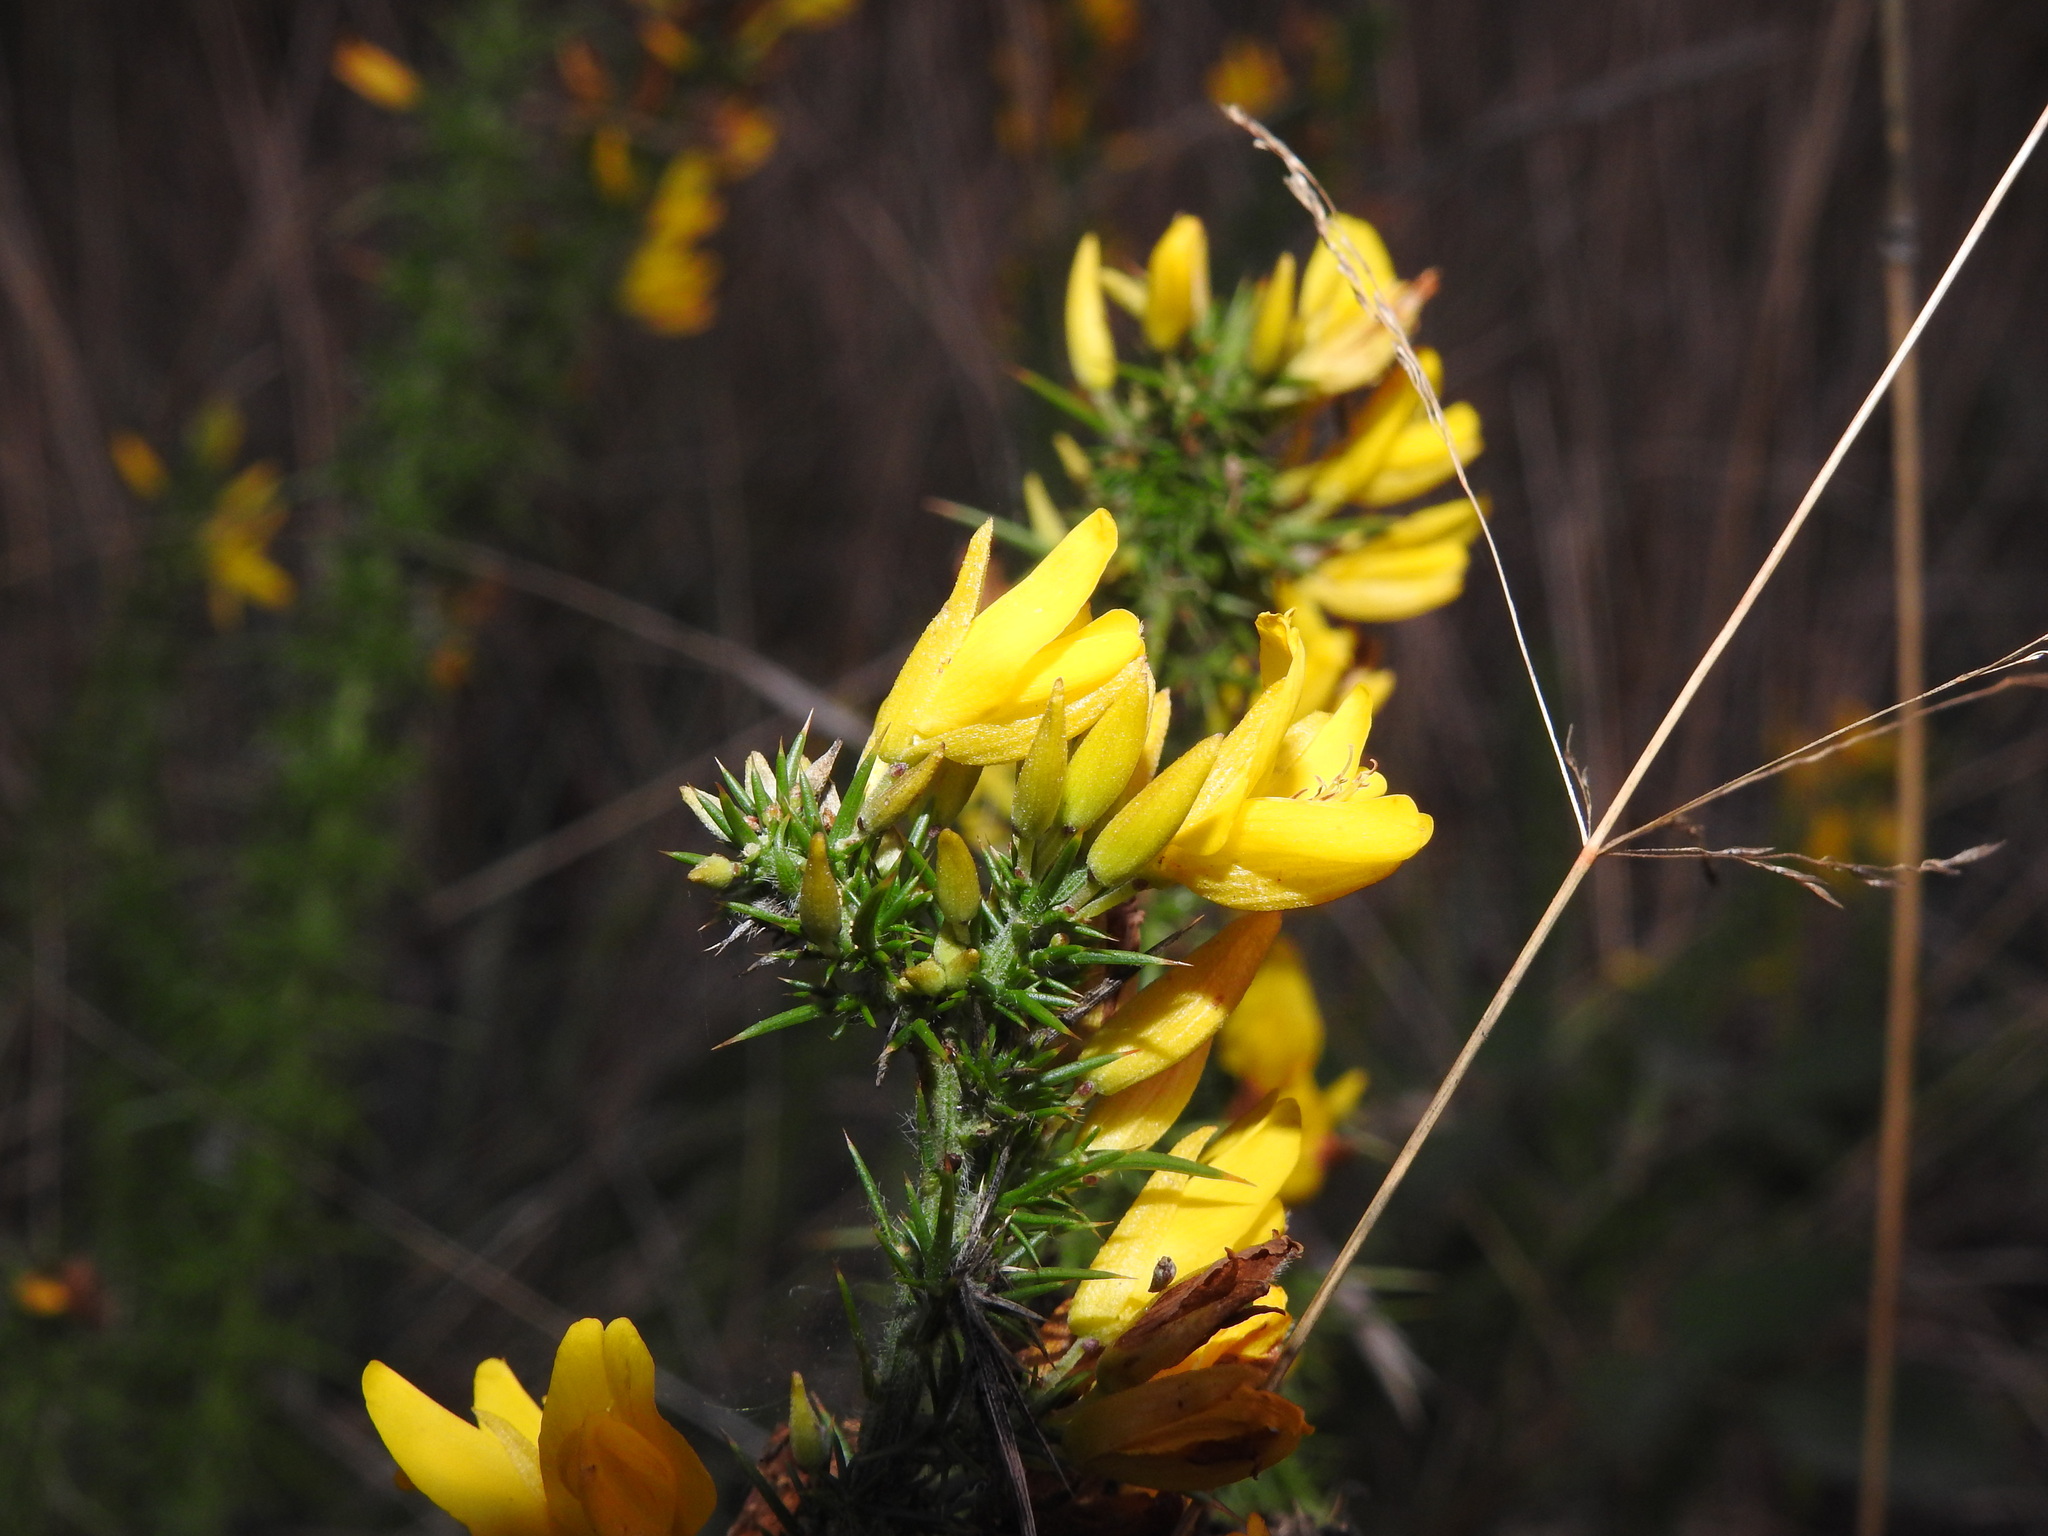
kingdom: Plantae
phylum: Tracheophyta
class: Magnoliopsida
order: Fabales
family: Fabaceae
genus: Ulex
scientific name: Ulex minor
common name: Dwarf gorse
